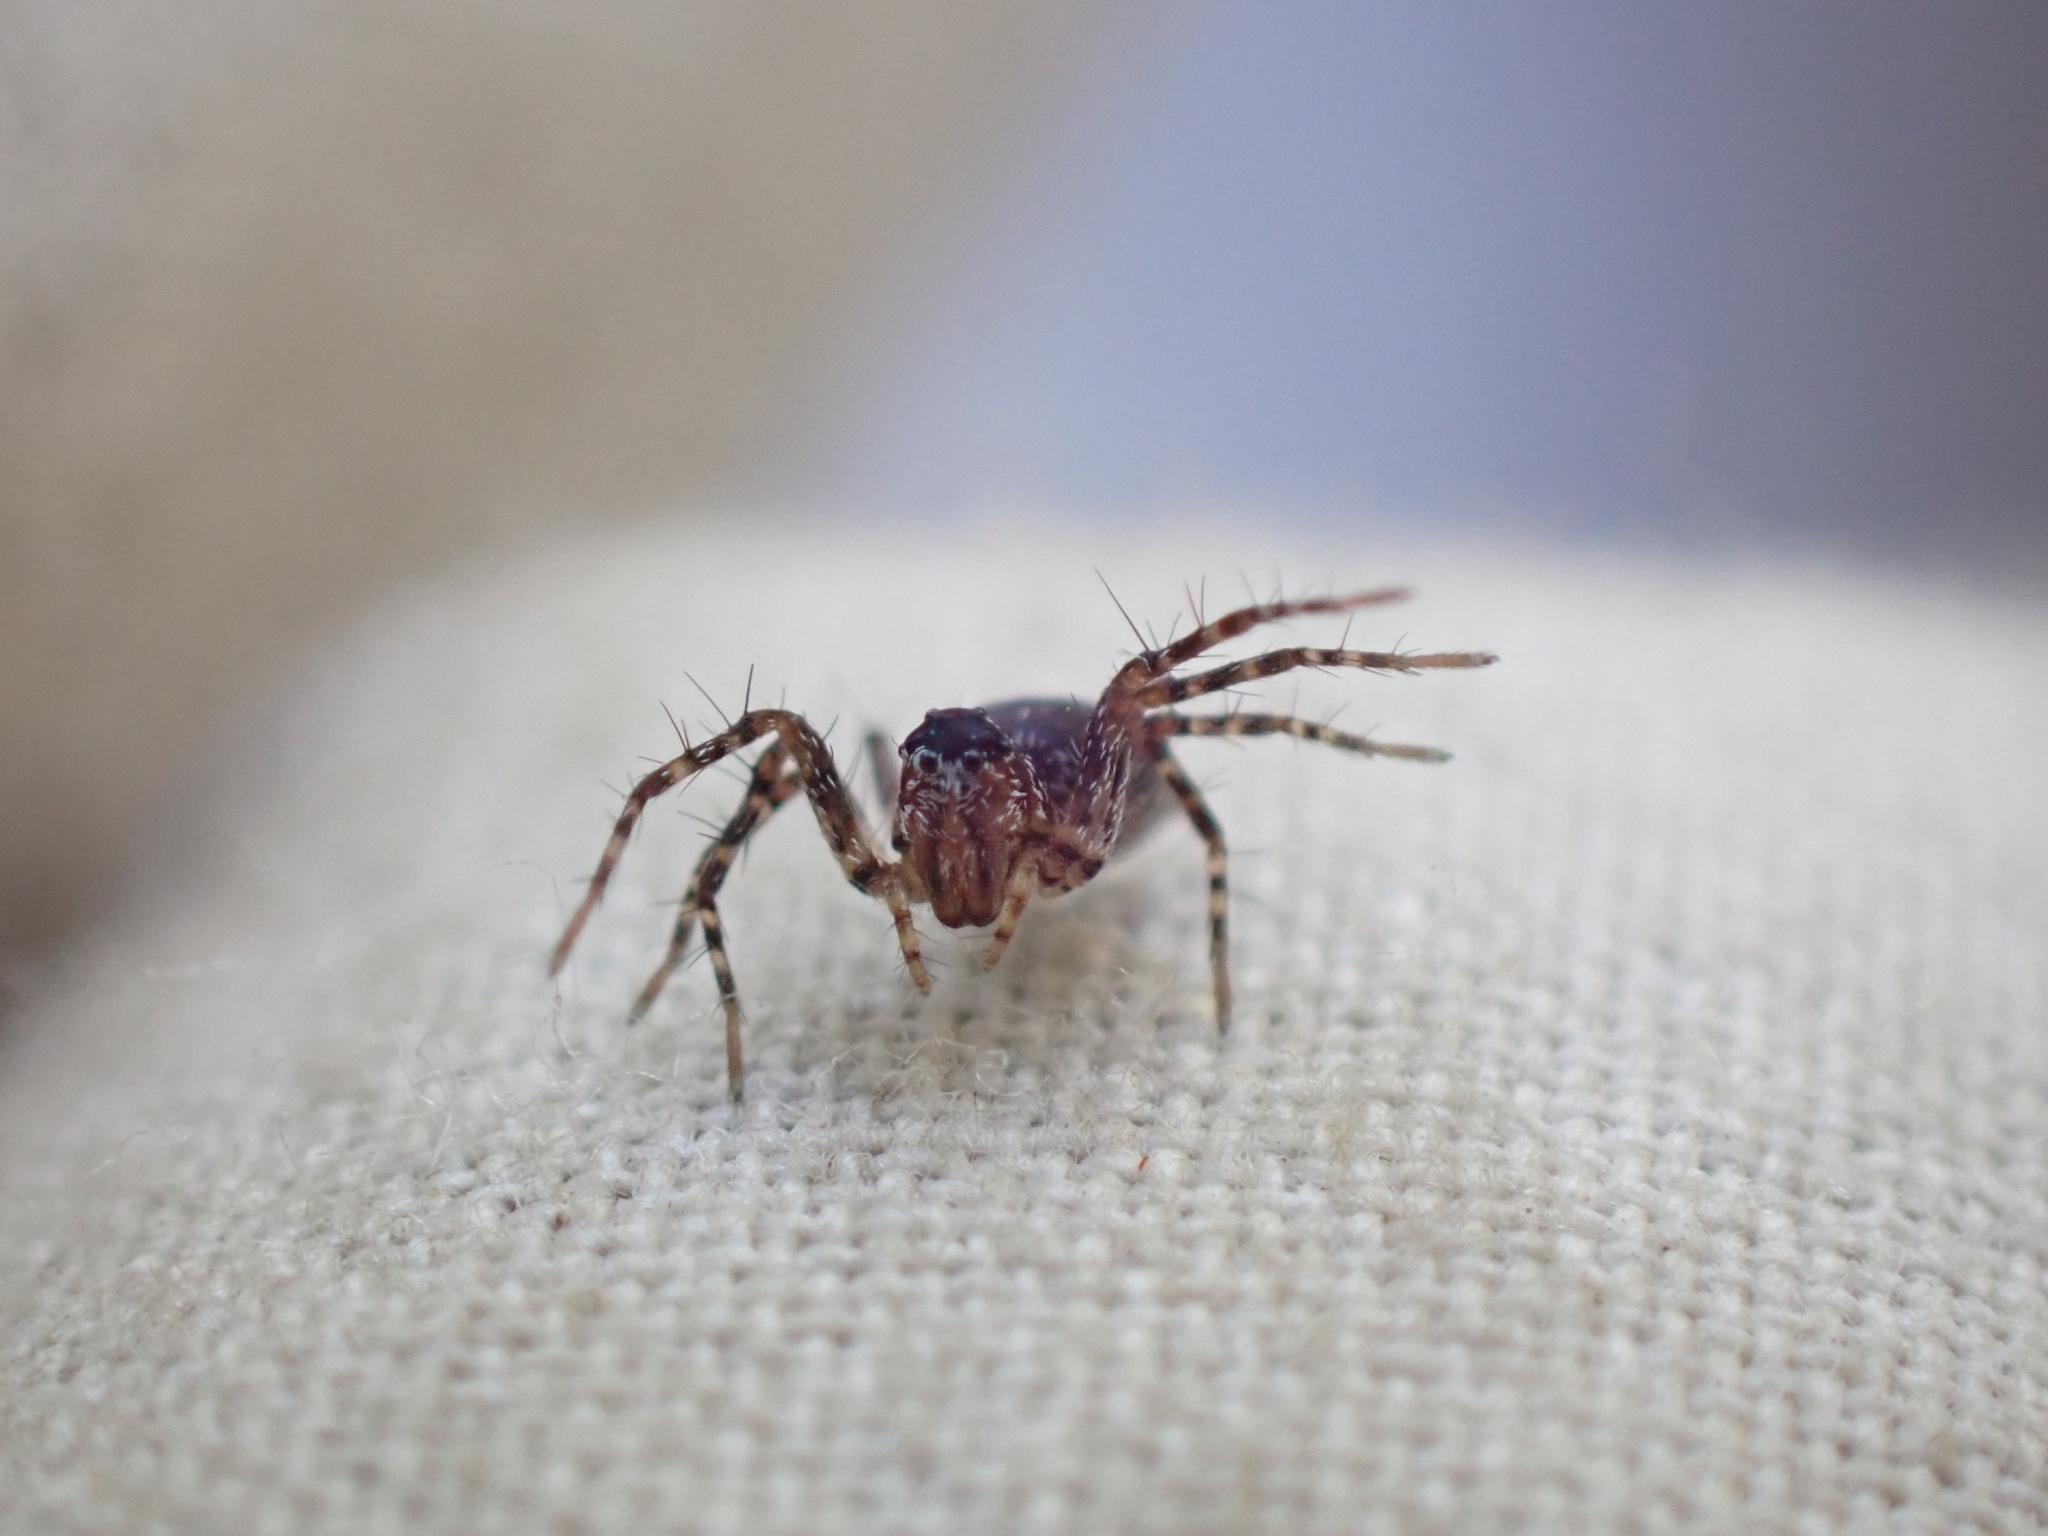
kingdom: Animalia
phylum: Arthropoda
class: Arachnida
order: Araneae
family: Oxyopidae
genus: Oxyopes
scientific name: Oxyopes scalaris
